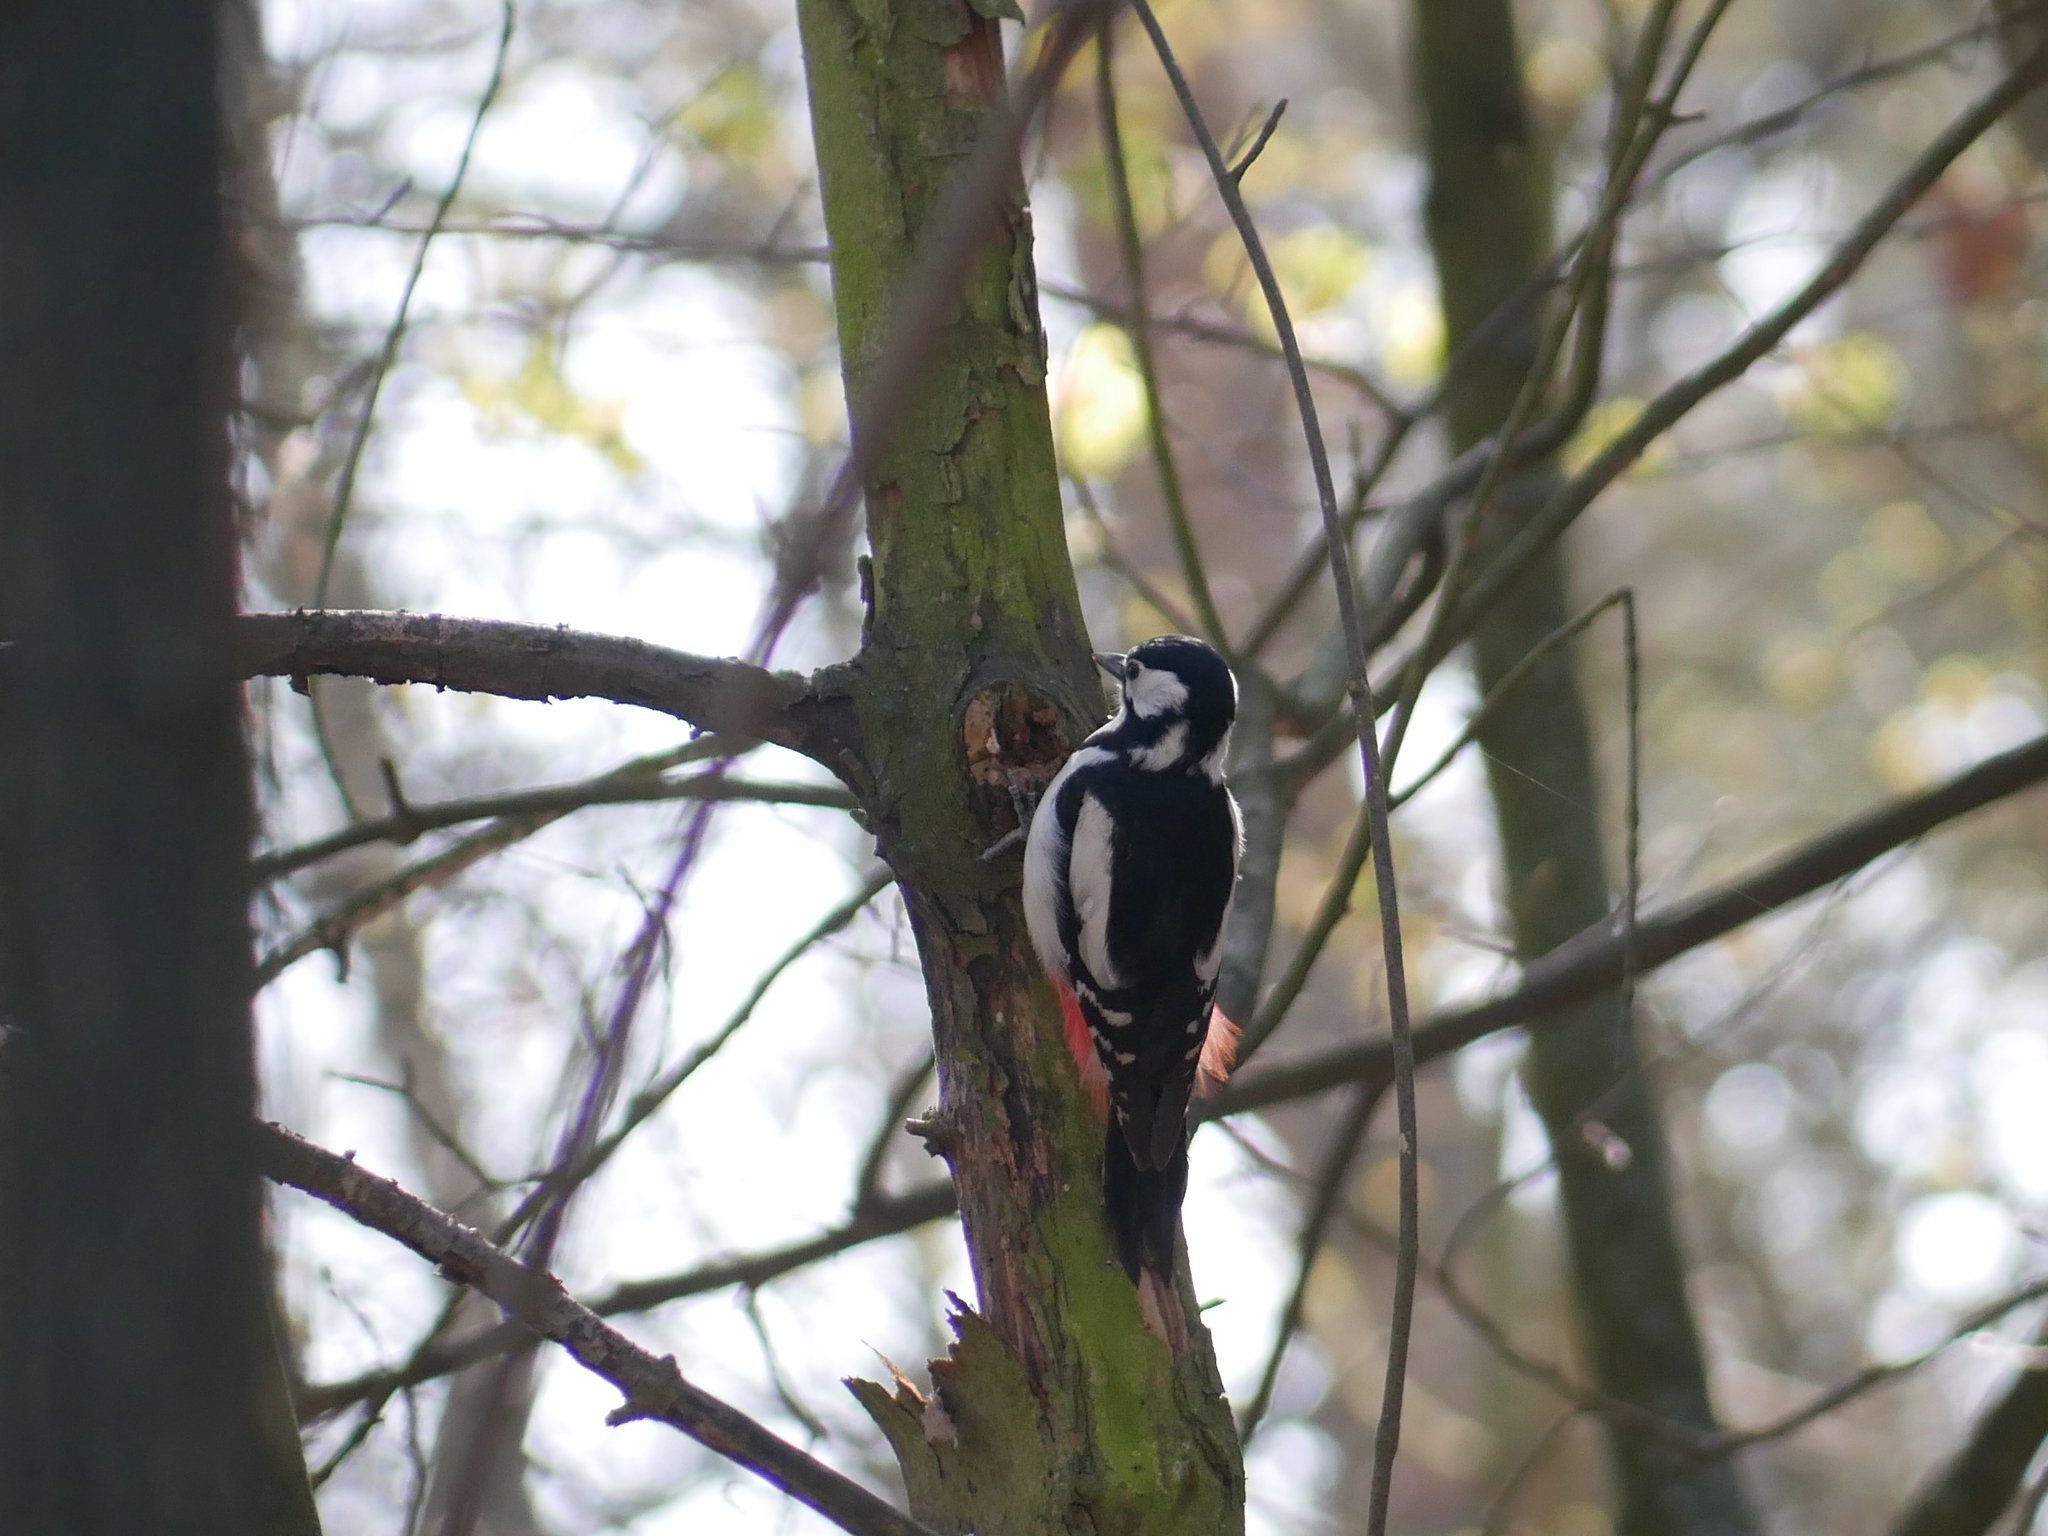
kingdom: Animalia
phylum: Chordata
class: Aves
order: Piciformes
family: Picidae
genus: Dendrocopos
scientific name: Dendrocopos major
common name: Great spotted woodpecker
